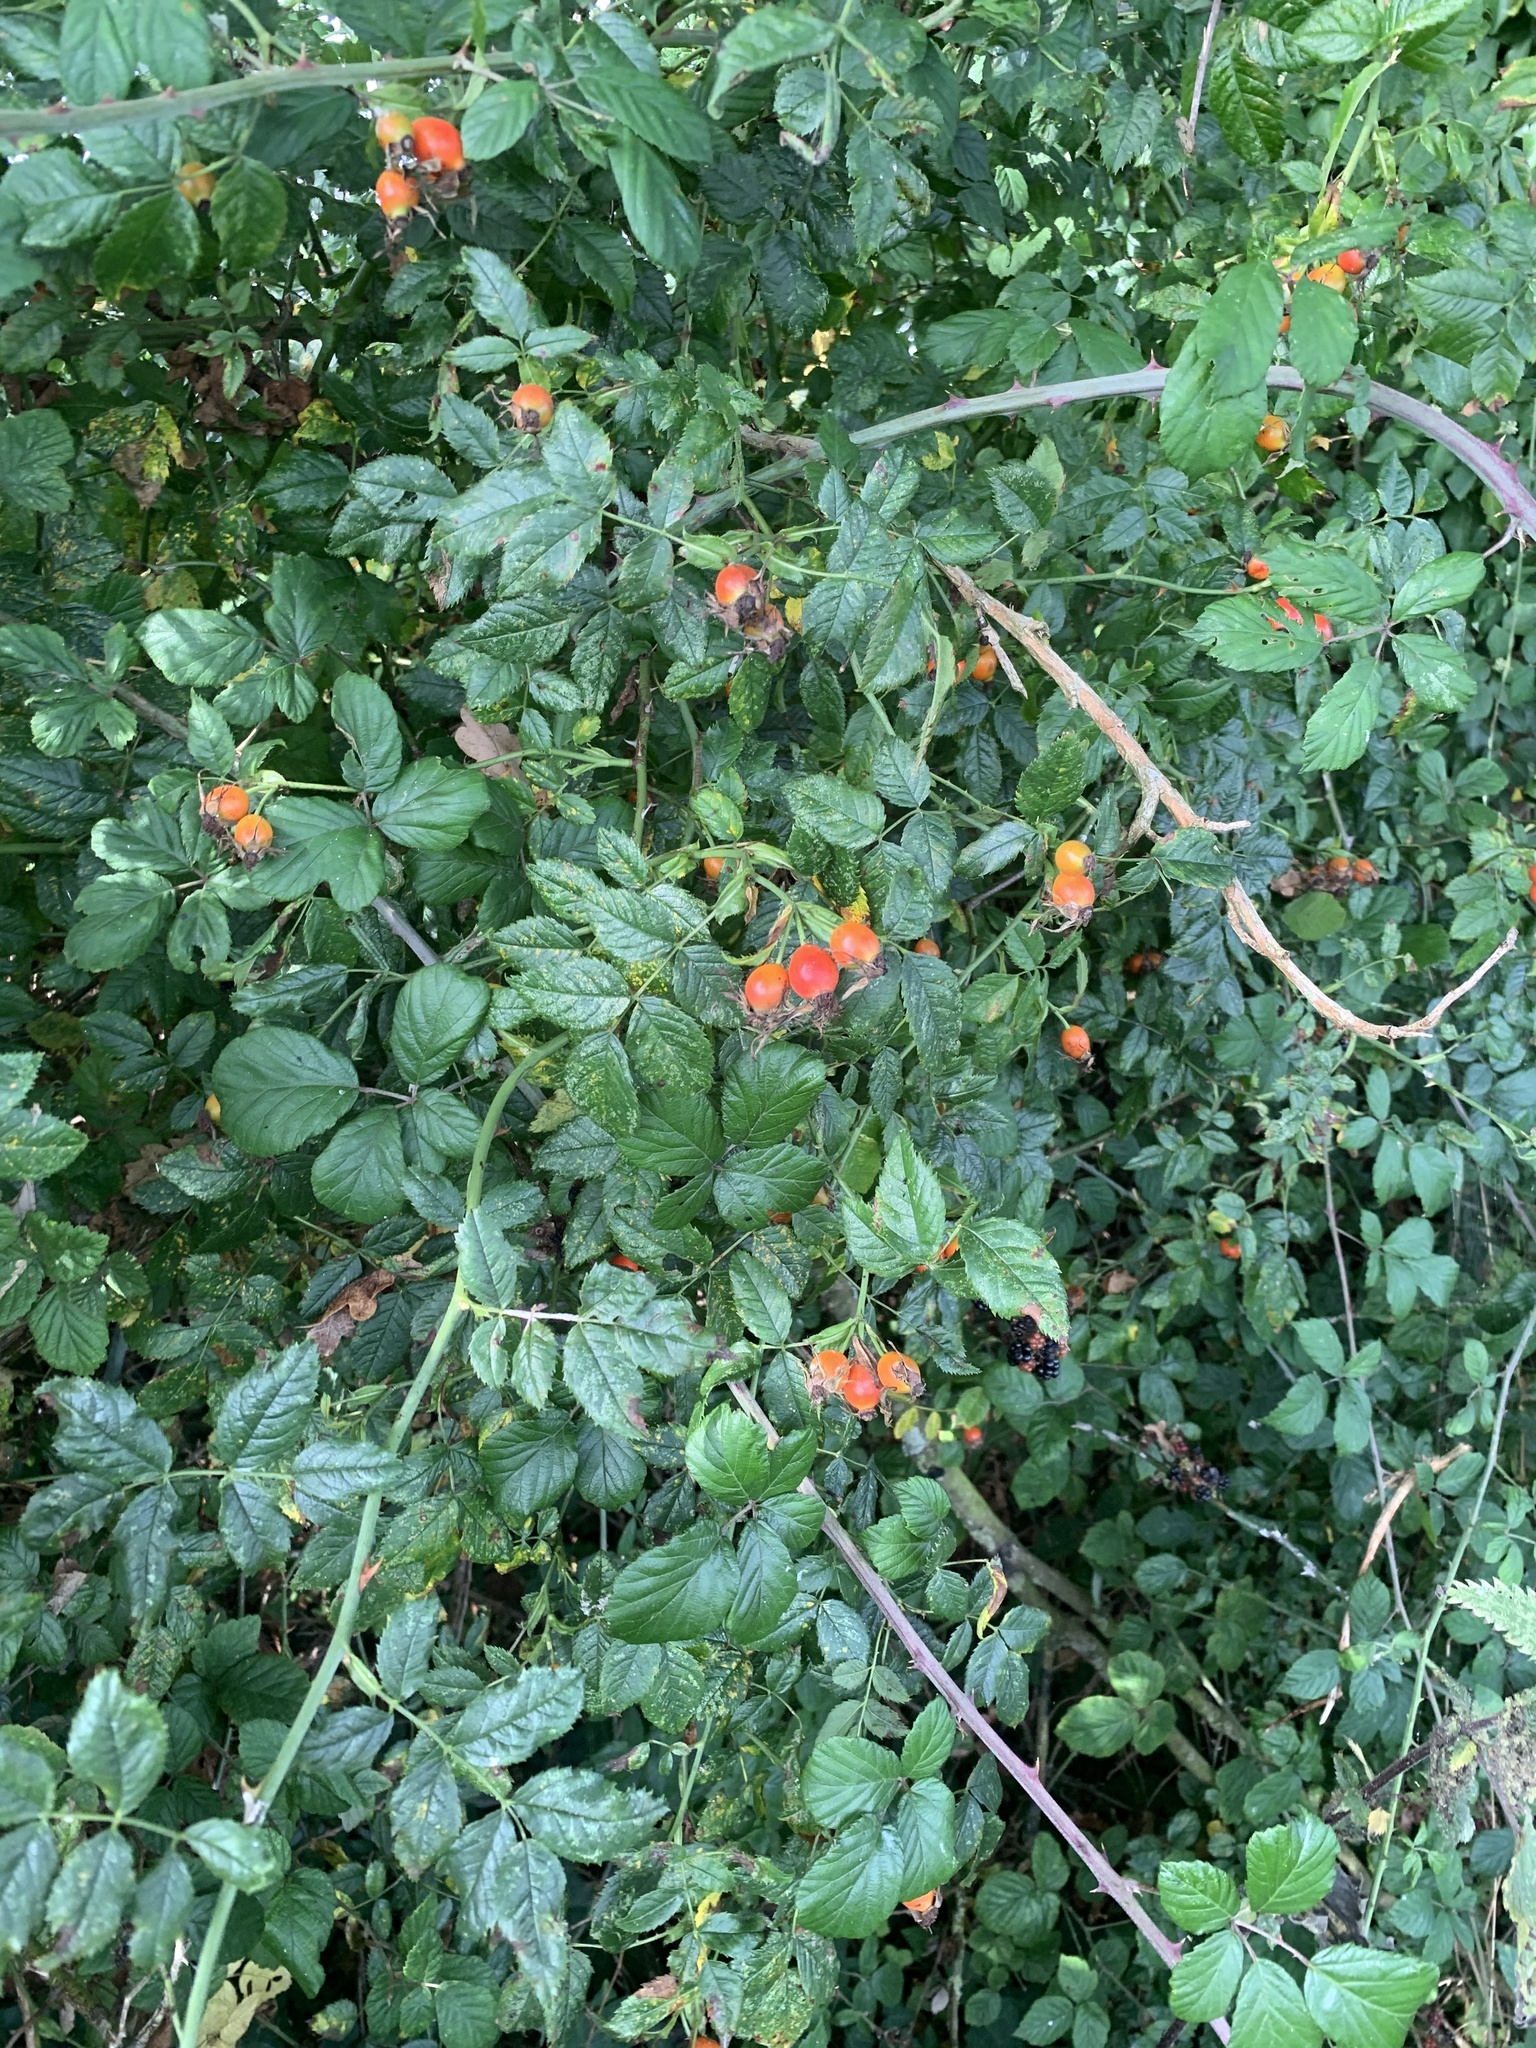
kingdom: Plantae
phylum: Tracheophyta
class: Magnoliopsida
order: Rosales
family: Rosaceae
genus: Rosa
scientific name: Rosa canina
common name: Dog rose
